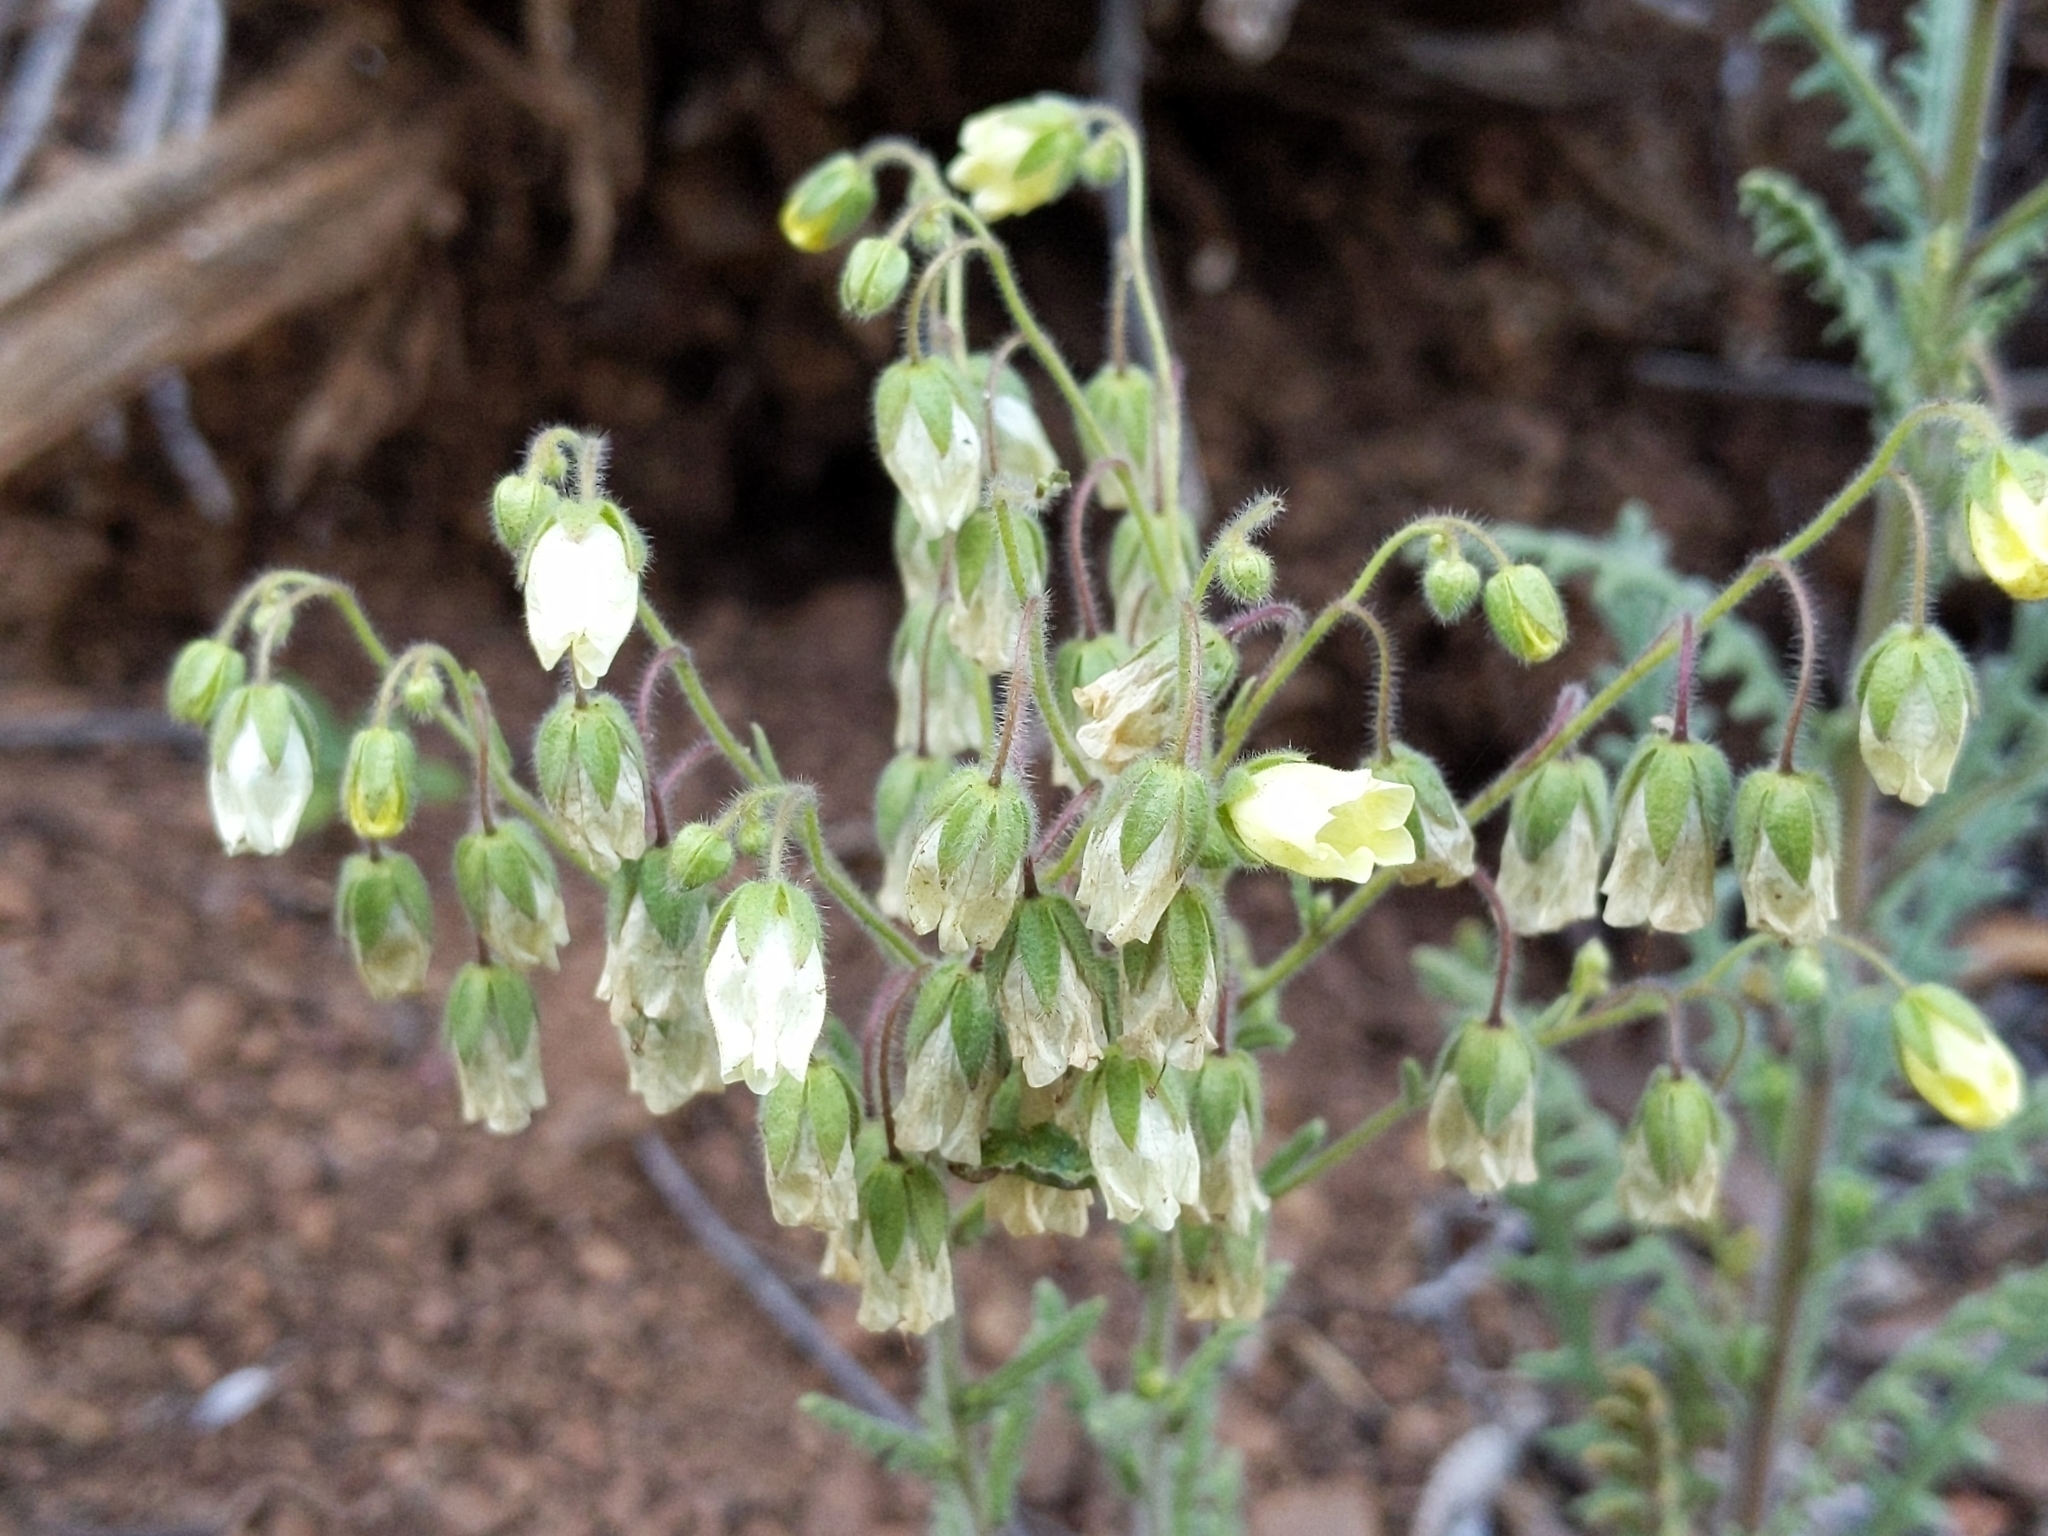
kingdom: Plantae
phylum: Tracheophyta
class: Magnoliopsida
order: Boraginales
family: Hydrophyllaceae
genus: Emmenanthe
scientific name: Emmenanthe penduliflora
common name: Whispering-bells
